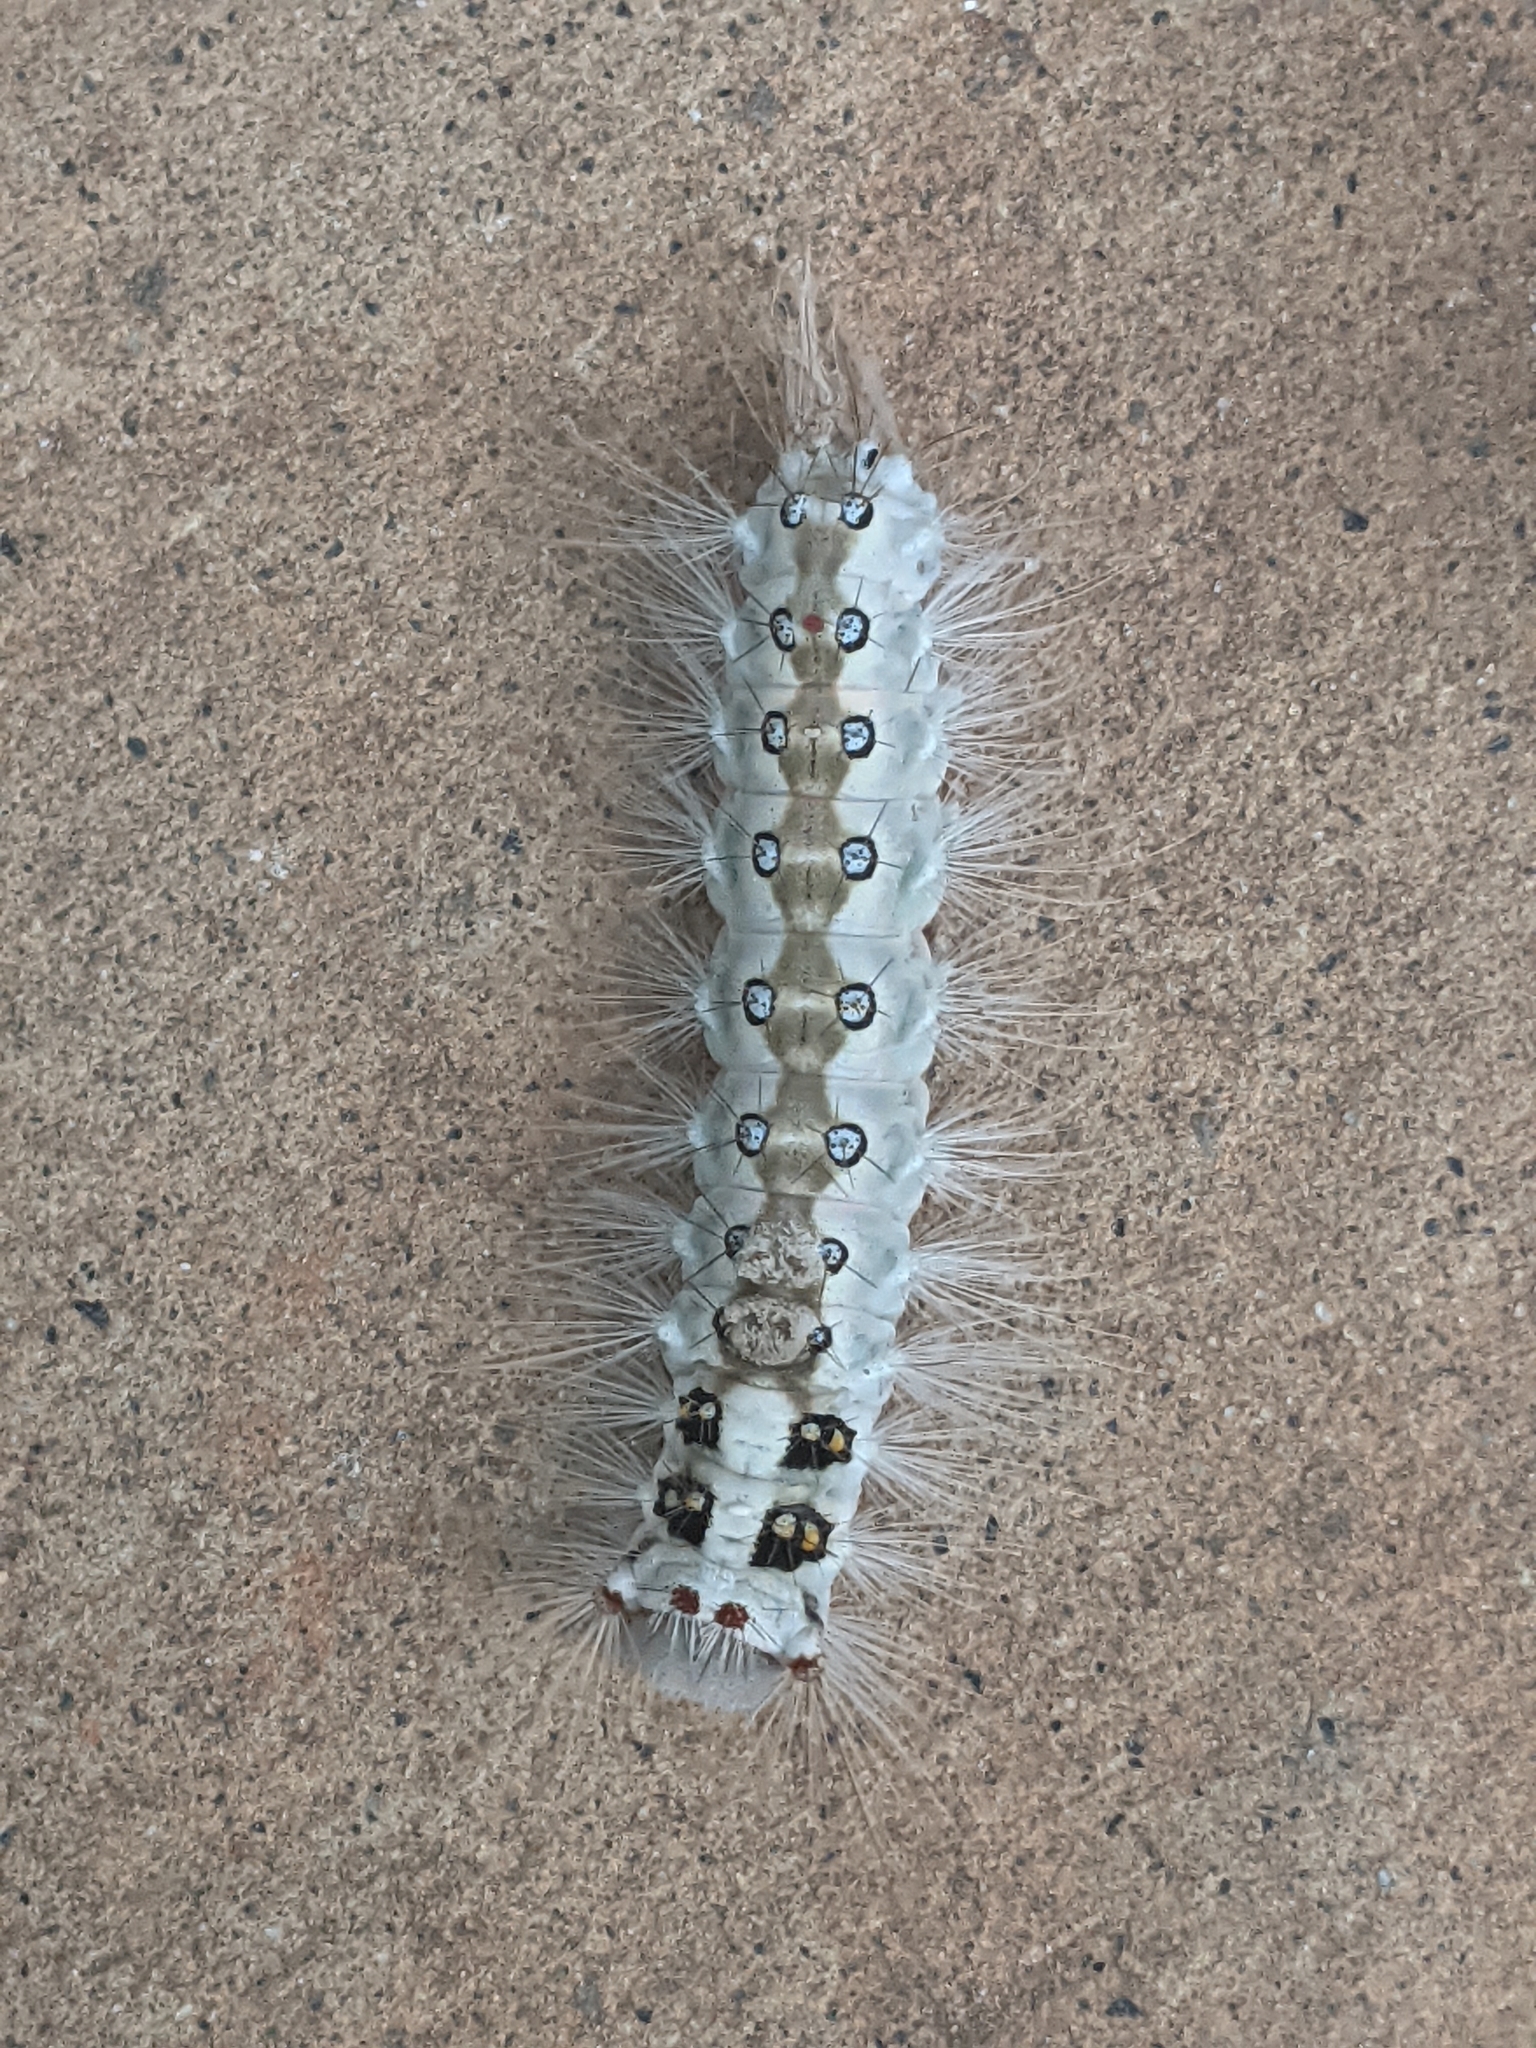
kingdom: Animalia
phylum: Arthropoda
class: Insecta
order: Lepidoptera
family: Erebidae
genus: Perina
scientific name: Perina nuda
